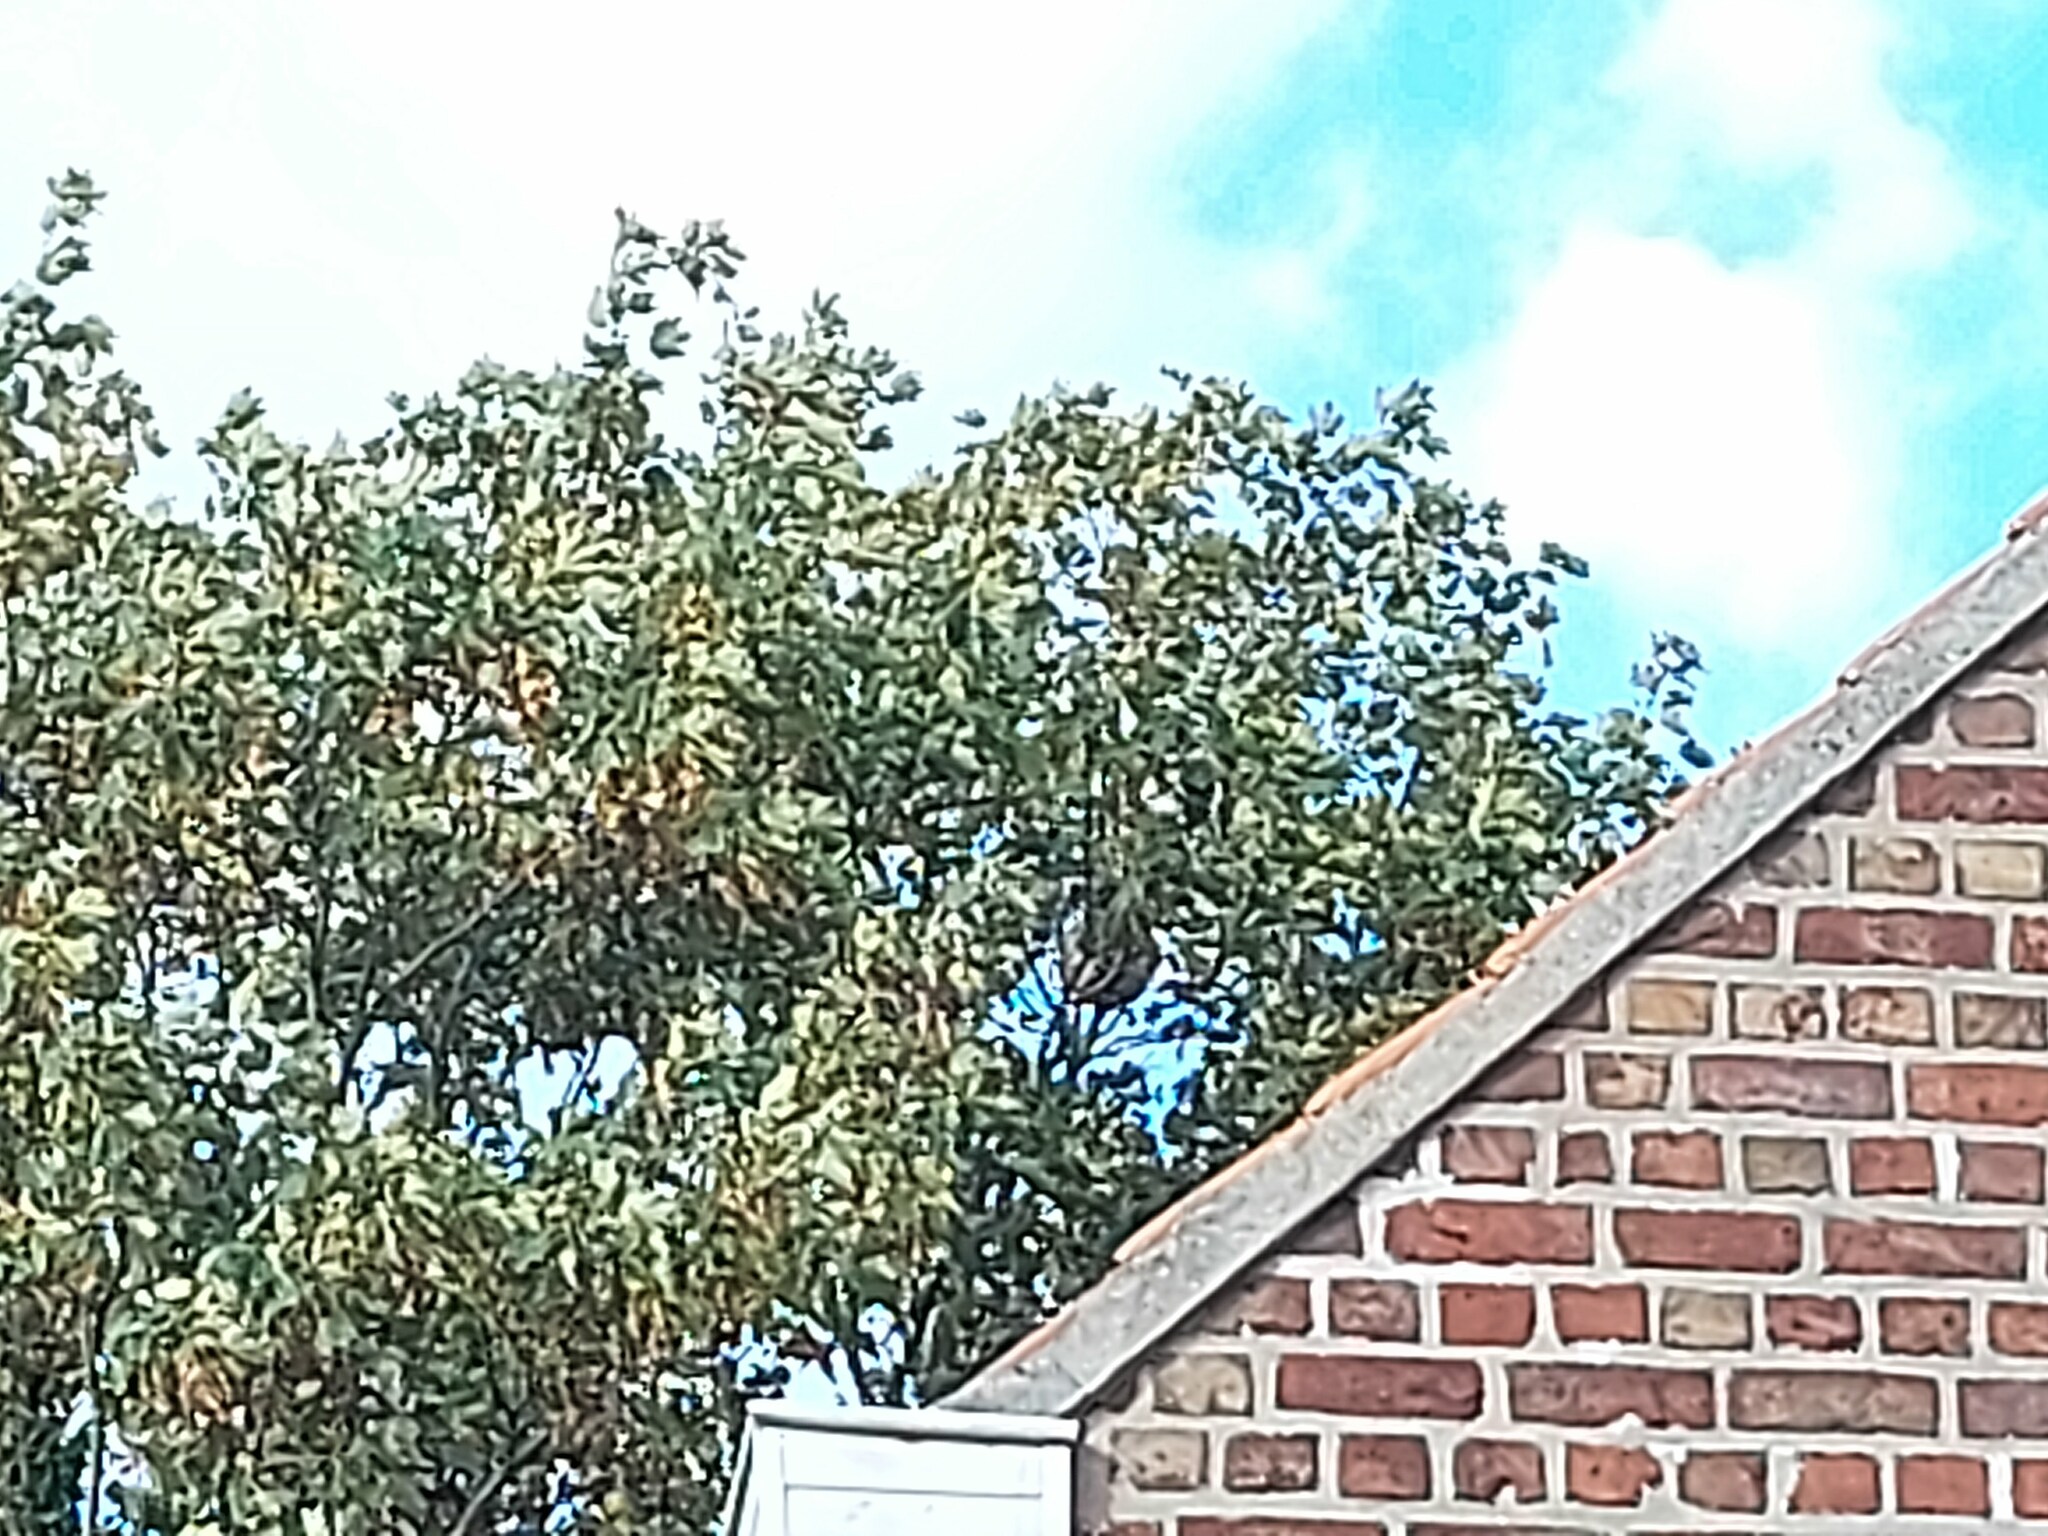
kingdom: Animalia
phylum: Arthropoda
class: Insecta
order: Hymenoptera
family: Vespidae
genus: Vespa
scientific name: Vespa velutina
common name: Asian hornet
